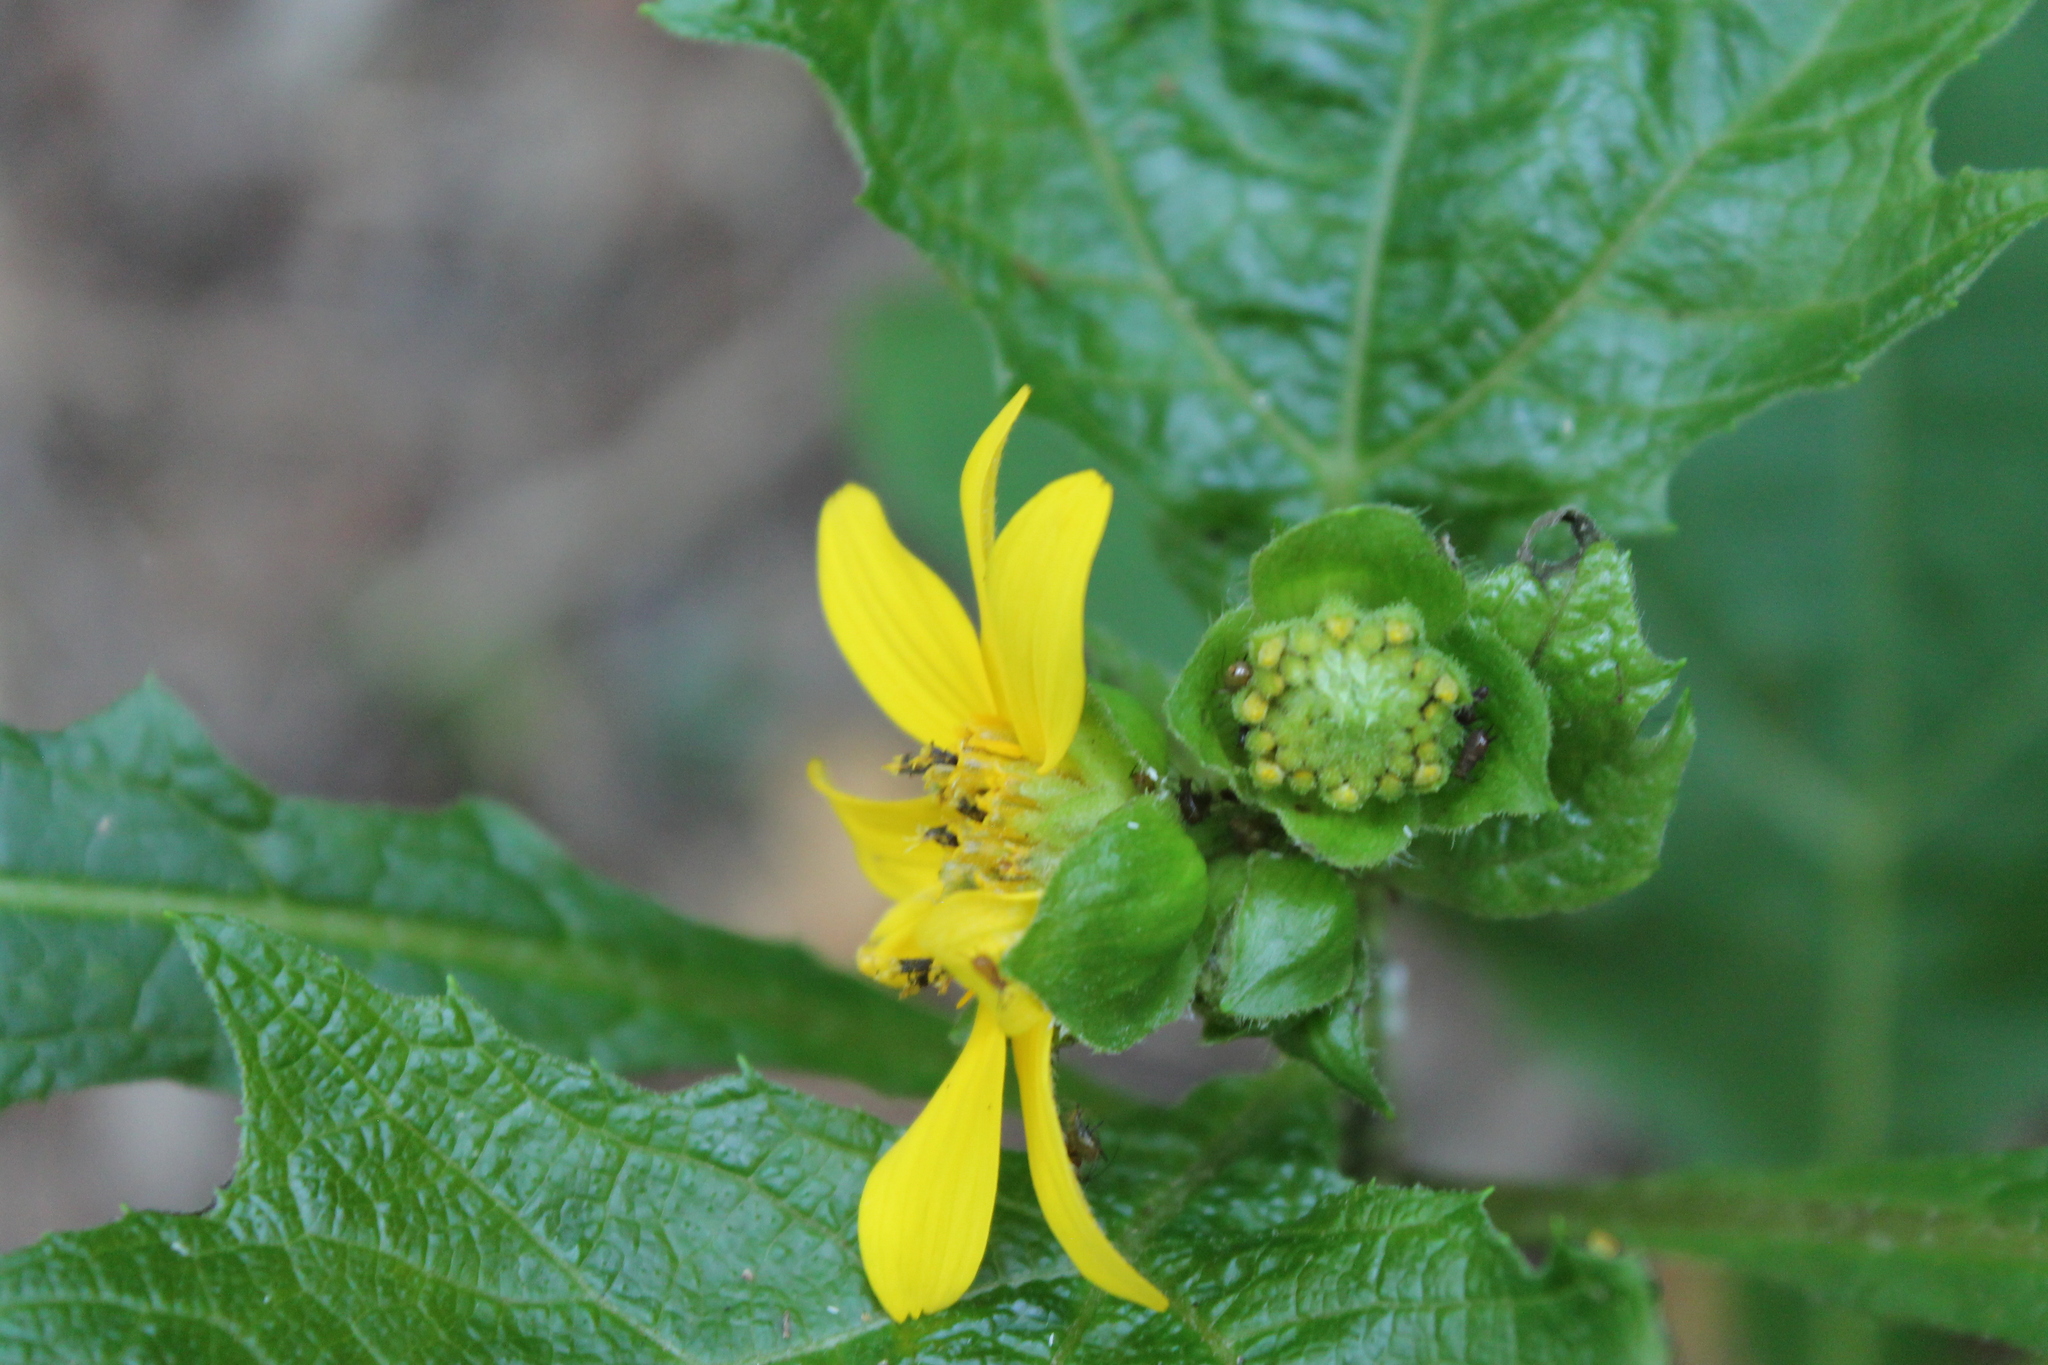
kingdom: Plantae
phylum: Tracheophyta
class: Magnoliopsida
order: Asterales
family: Asteraceae
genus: Smallanthus
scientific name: Smallanthus uvedalia
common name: Bear's-foot
